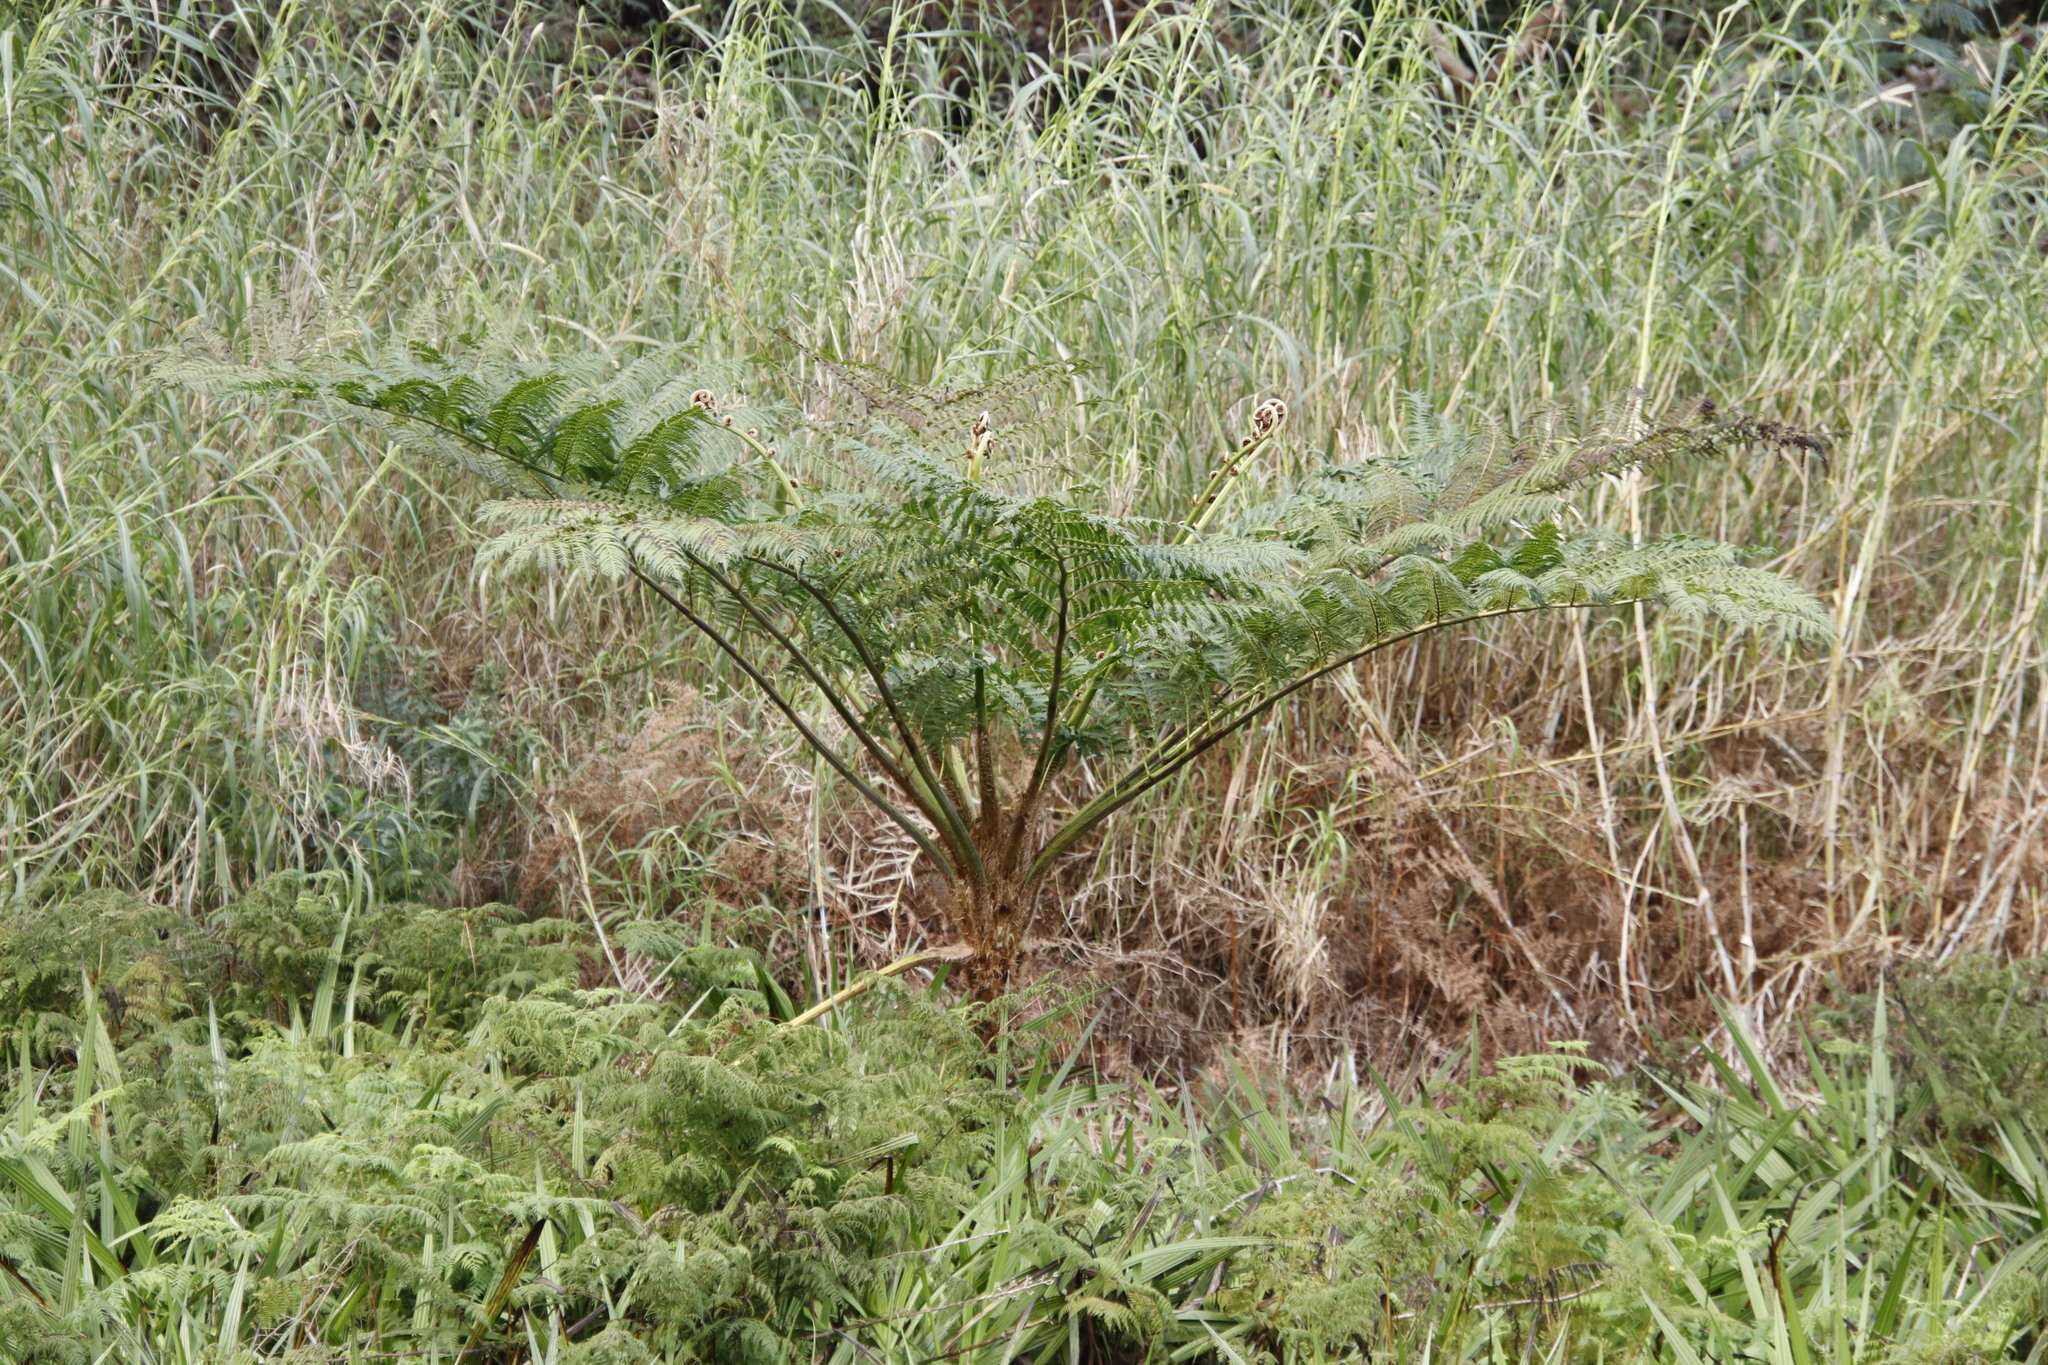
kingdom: Plantae
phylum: Tracheophyta
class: Polypodiopsida
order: Cyatheales
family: Cyatheaceae
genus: Sphaeropteris
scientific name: Sphaeropteris cooperi
